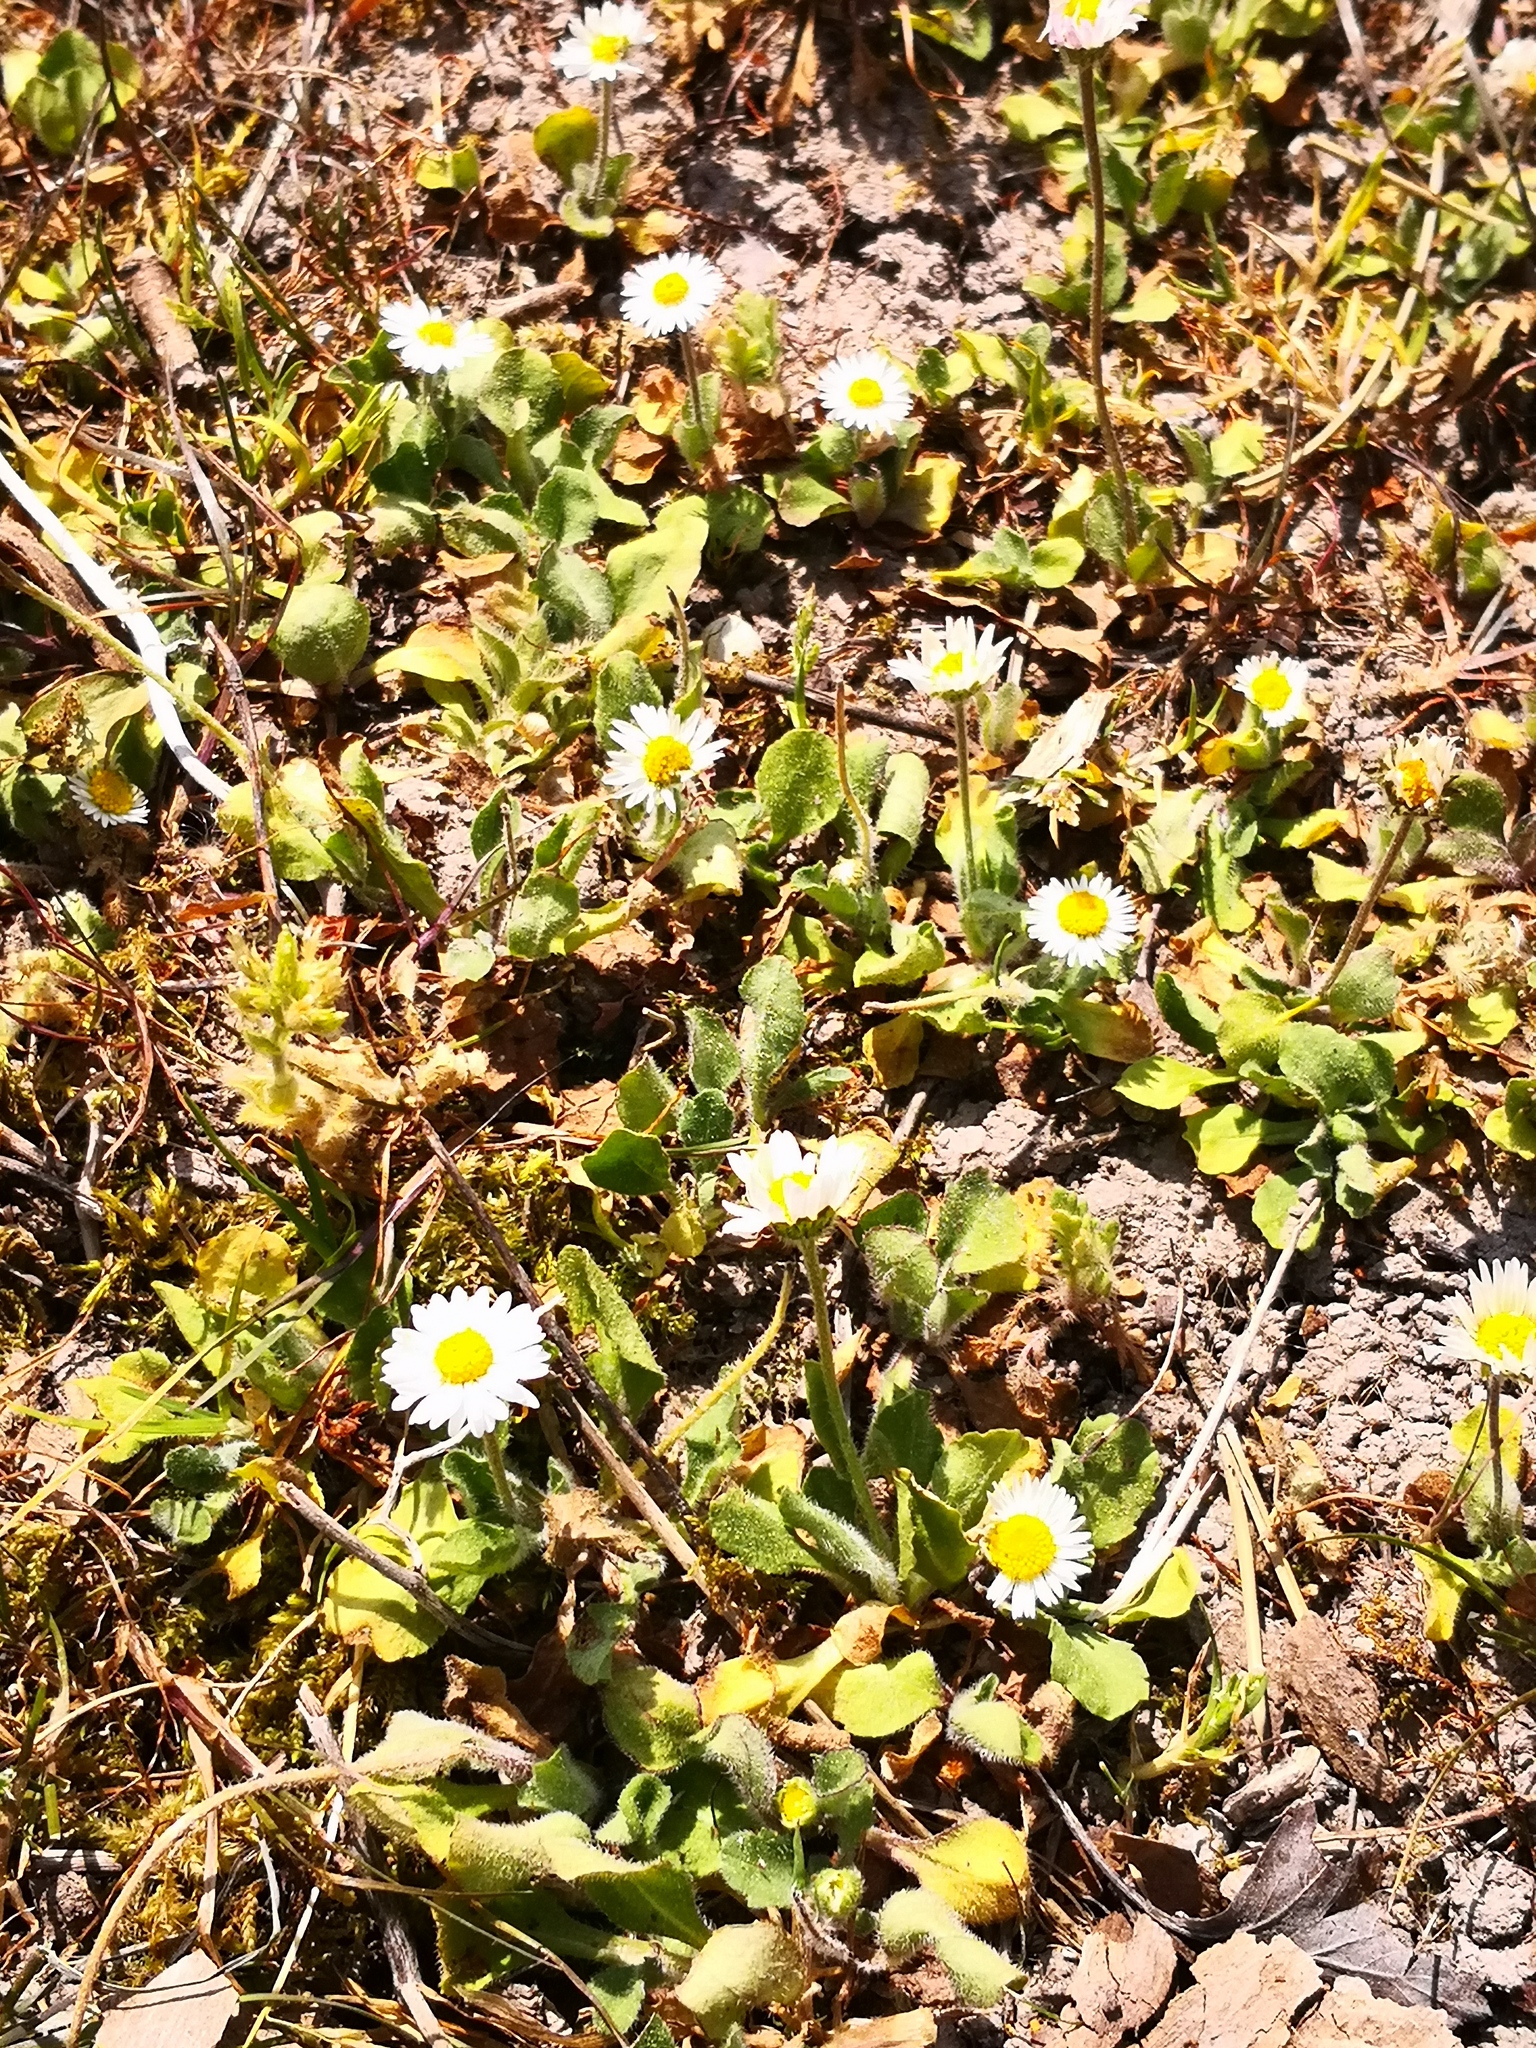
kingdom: Plantae
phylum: Tracheophyta
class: Magnoliopsida
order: Asterales
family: Asteraceae
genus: Bellis
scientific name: Bellis perennis
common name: Lawndaisy
